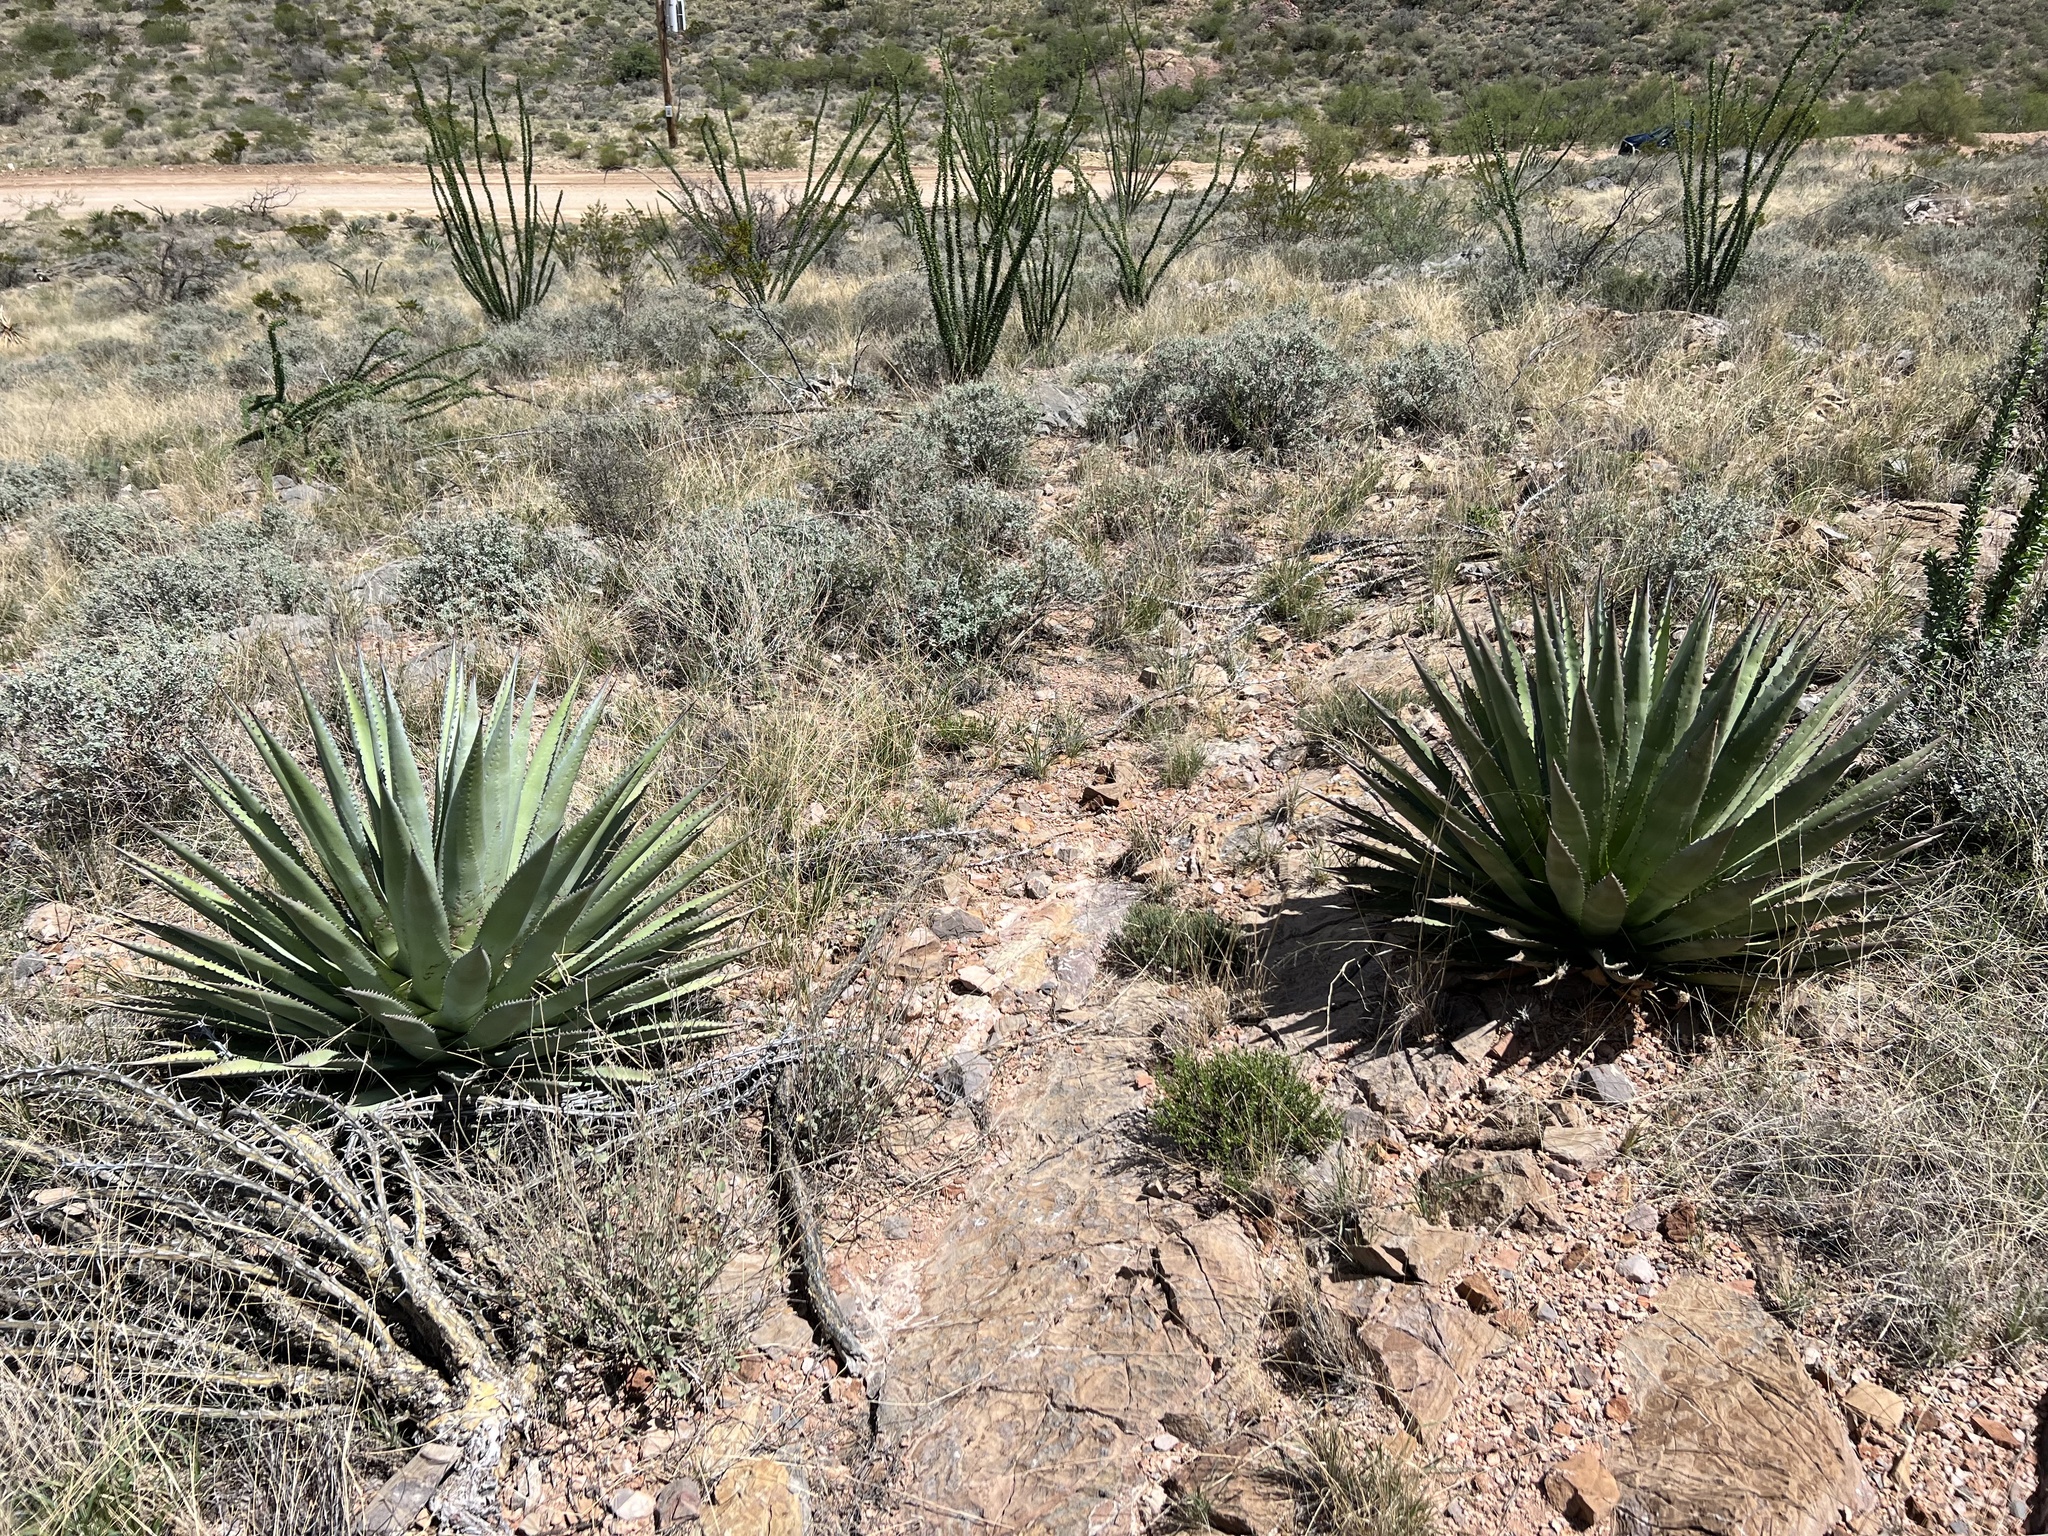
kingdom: Plantae
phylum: Tracheophyta
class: Liliopsida
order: Asparagales
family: Asparagaceae
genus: Agave
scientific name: Agave palmeri
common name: Palmer agave
